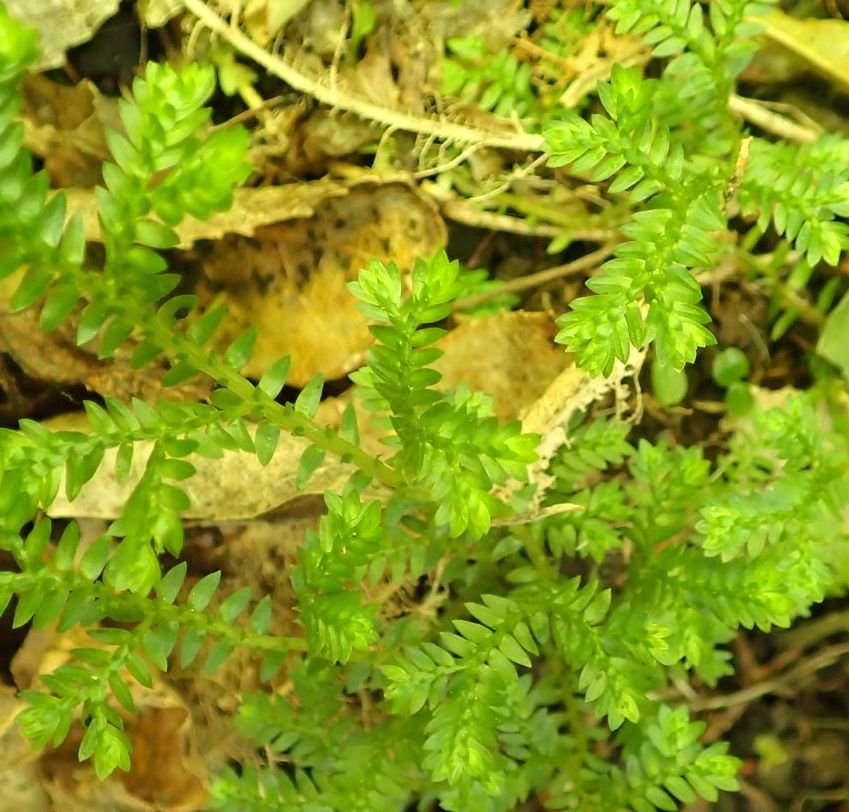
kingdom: Plantae
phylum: Tracheophyta
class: Lycopodiopsida
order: Selaginellales
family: Selaginellaceae
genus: Selaginella
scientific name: Selaginella kraussiana
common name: Krauss' spikemoss
